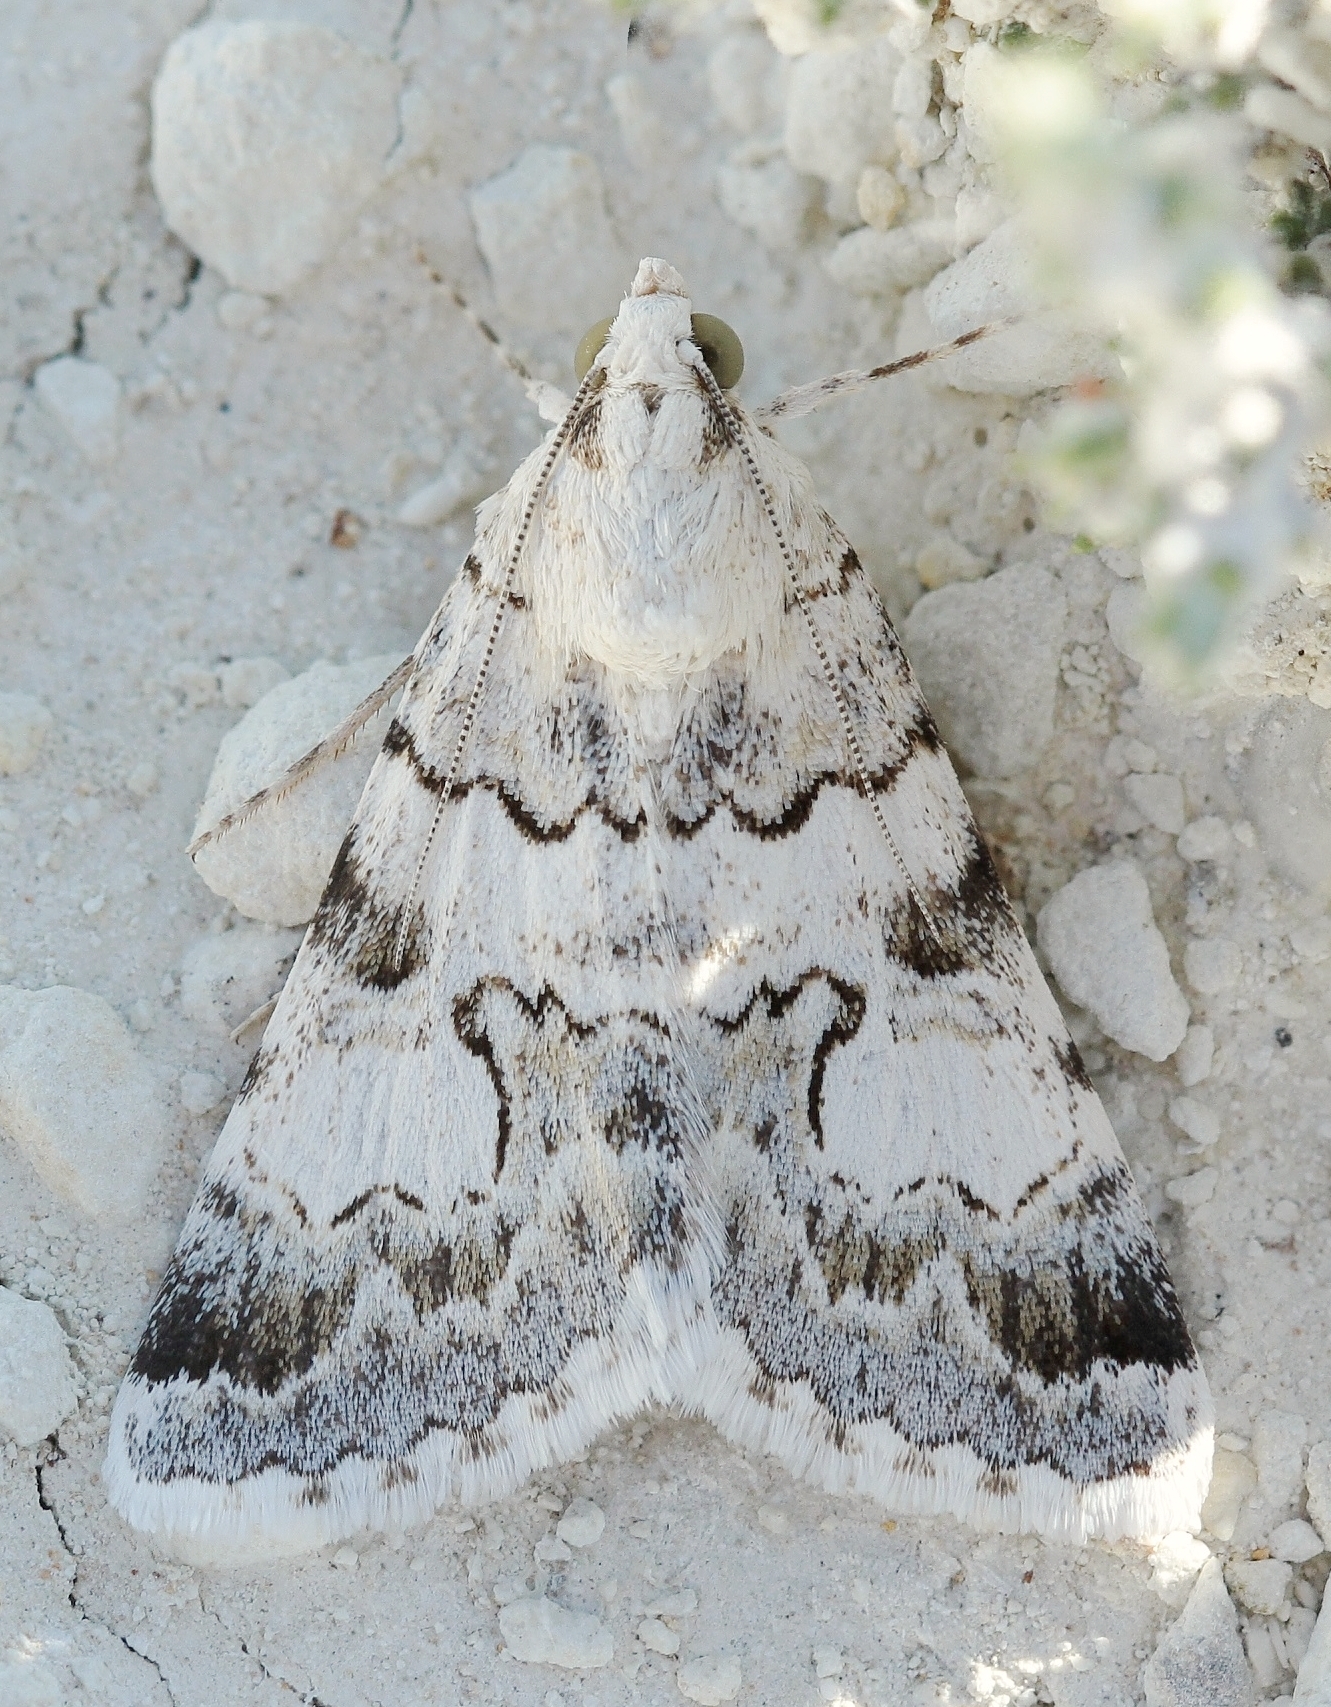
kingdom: Animalia
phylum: Arthropoda
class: Insecta
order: Lepidoptera
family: Erebidae
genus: Drasteria
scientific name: Drasteria saisani
